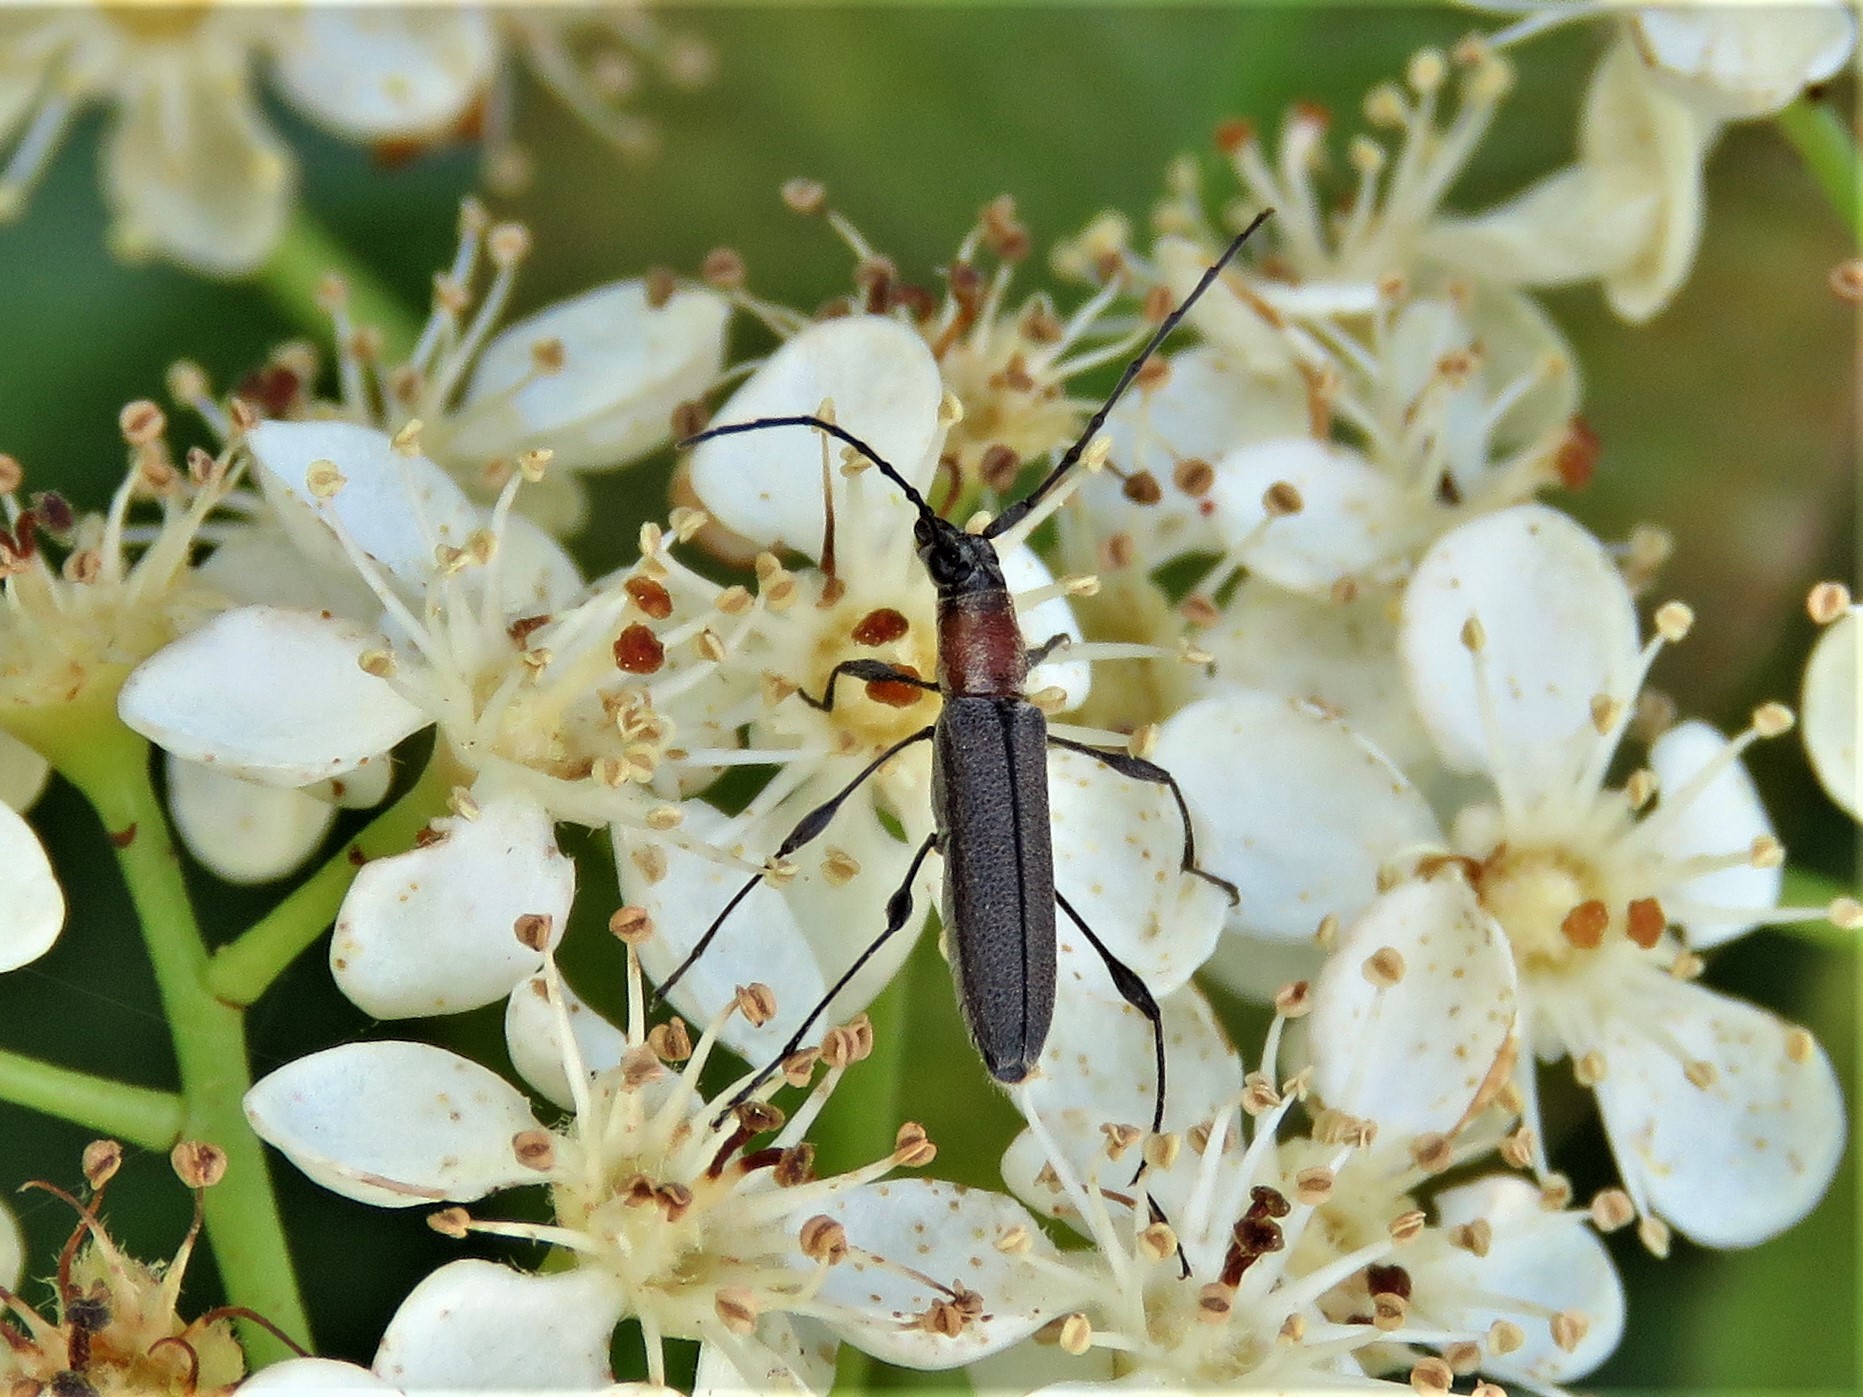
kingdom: Animalia
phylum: Arthropoda
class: Insecta
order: Coleoptera
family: Cerambycidae
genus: Rhopalophora
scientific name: Rhopalophora longipes
